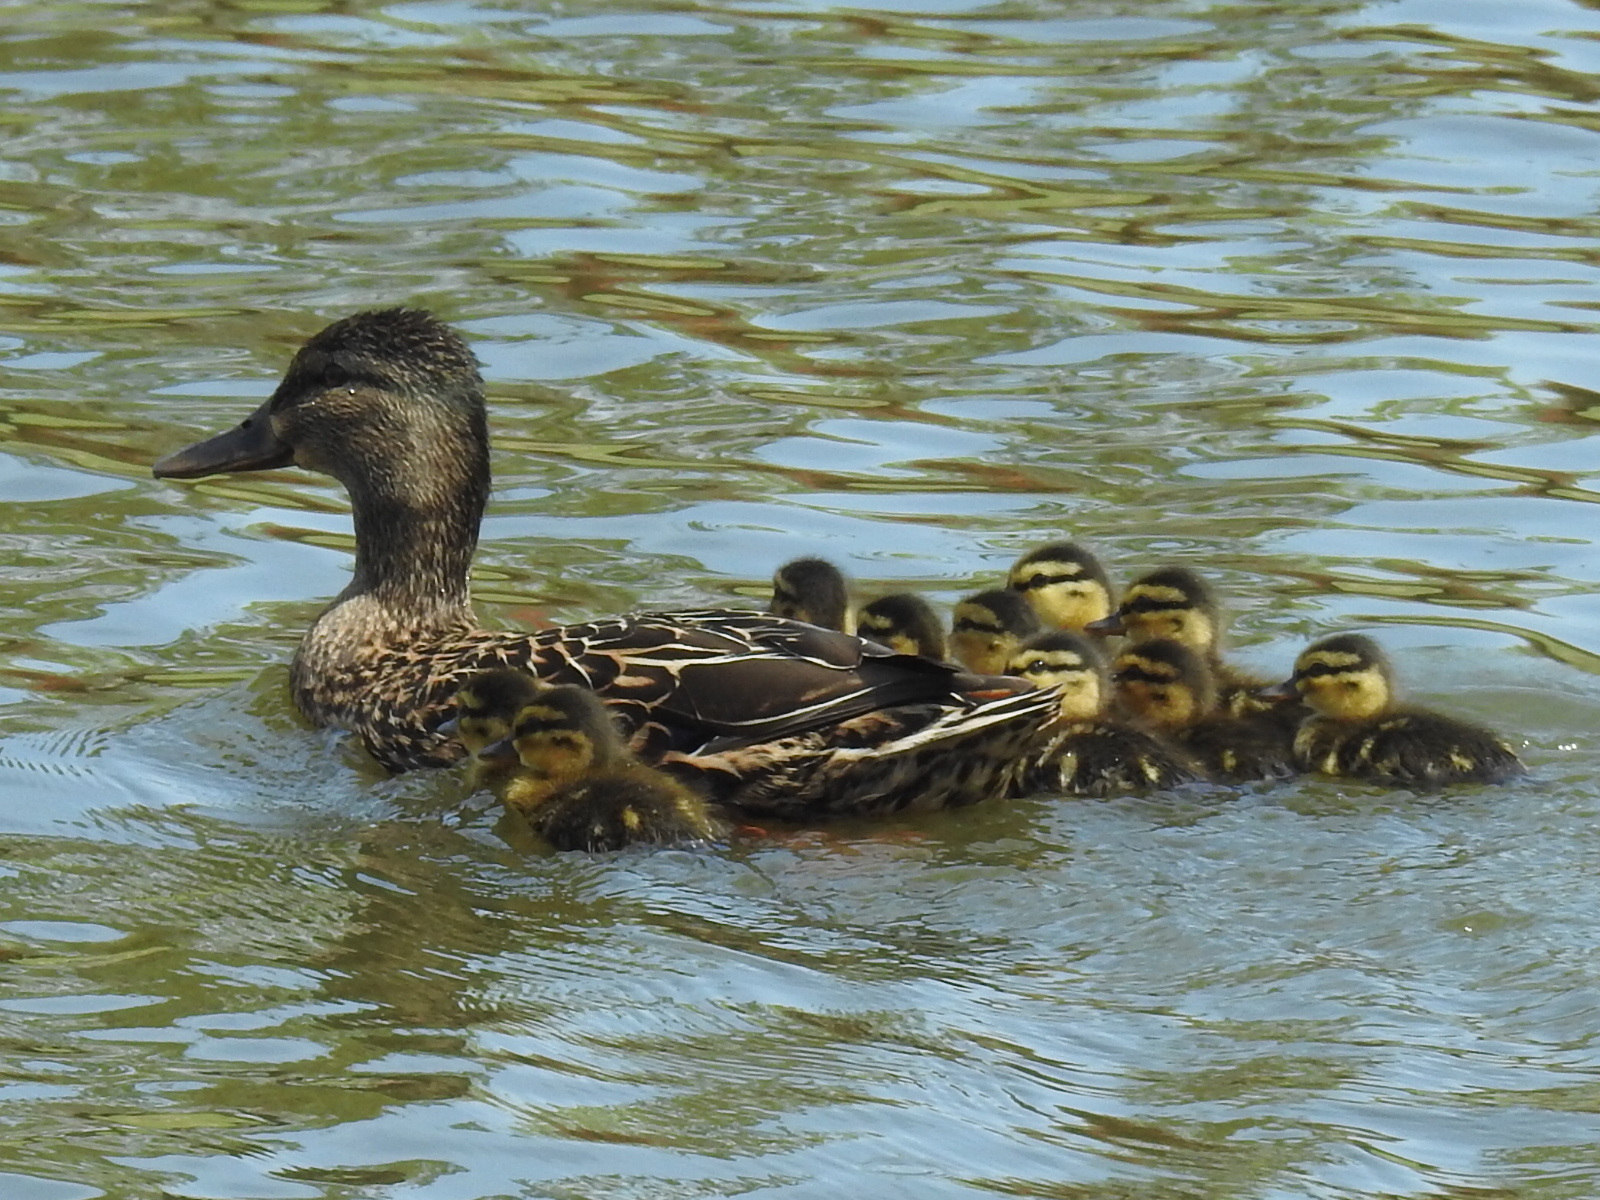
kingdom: Animalia
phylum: Chordata
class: Aves
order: Anseriformes
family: Anatidae
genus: Anas
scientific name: Anas platyrhynchos
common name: Mallard
